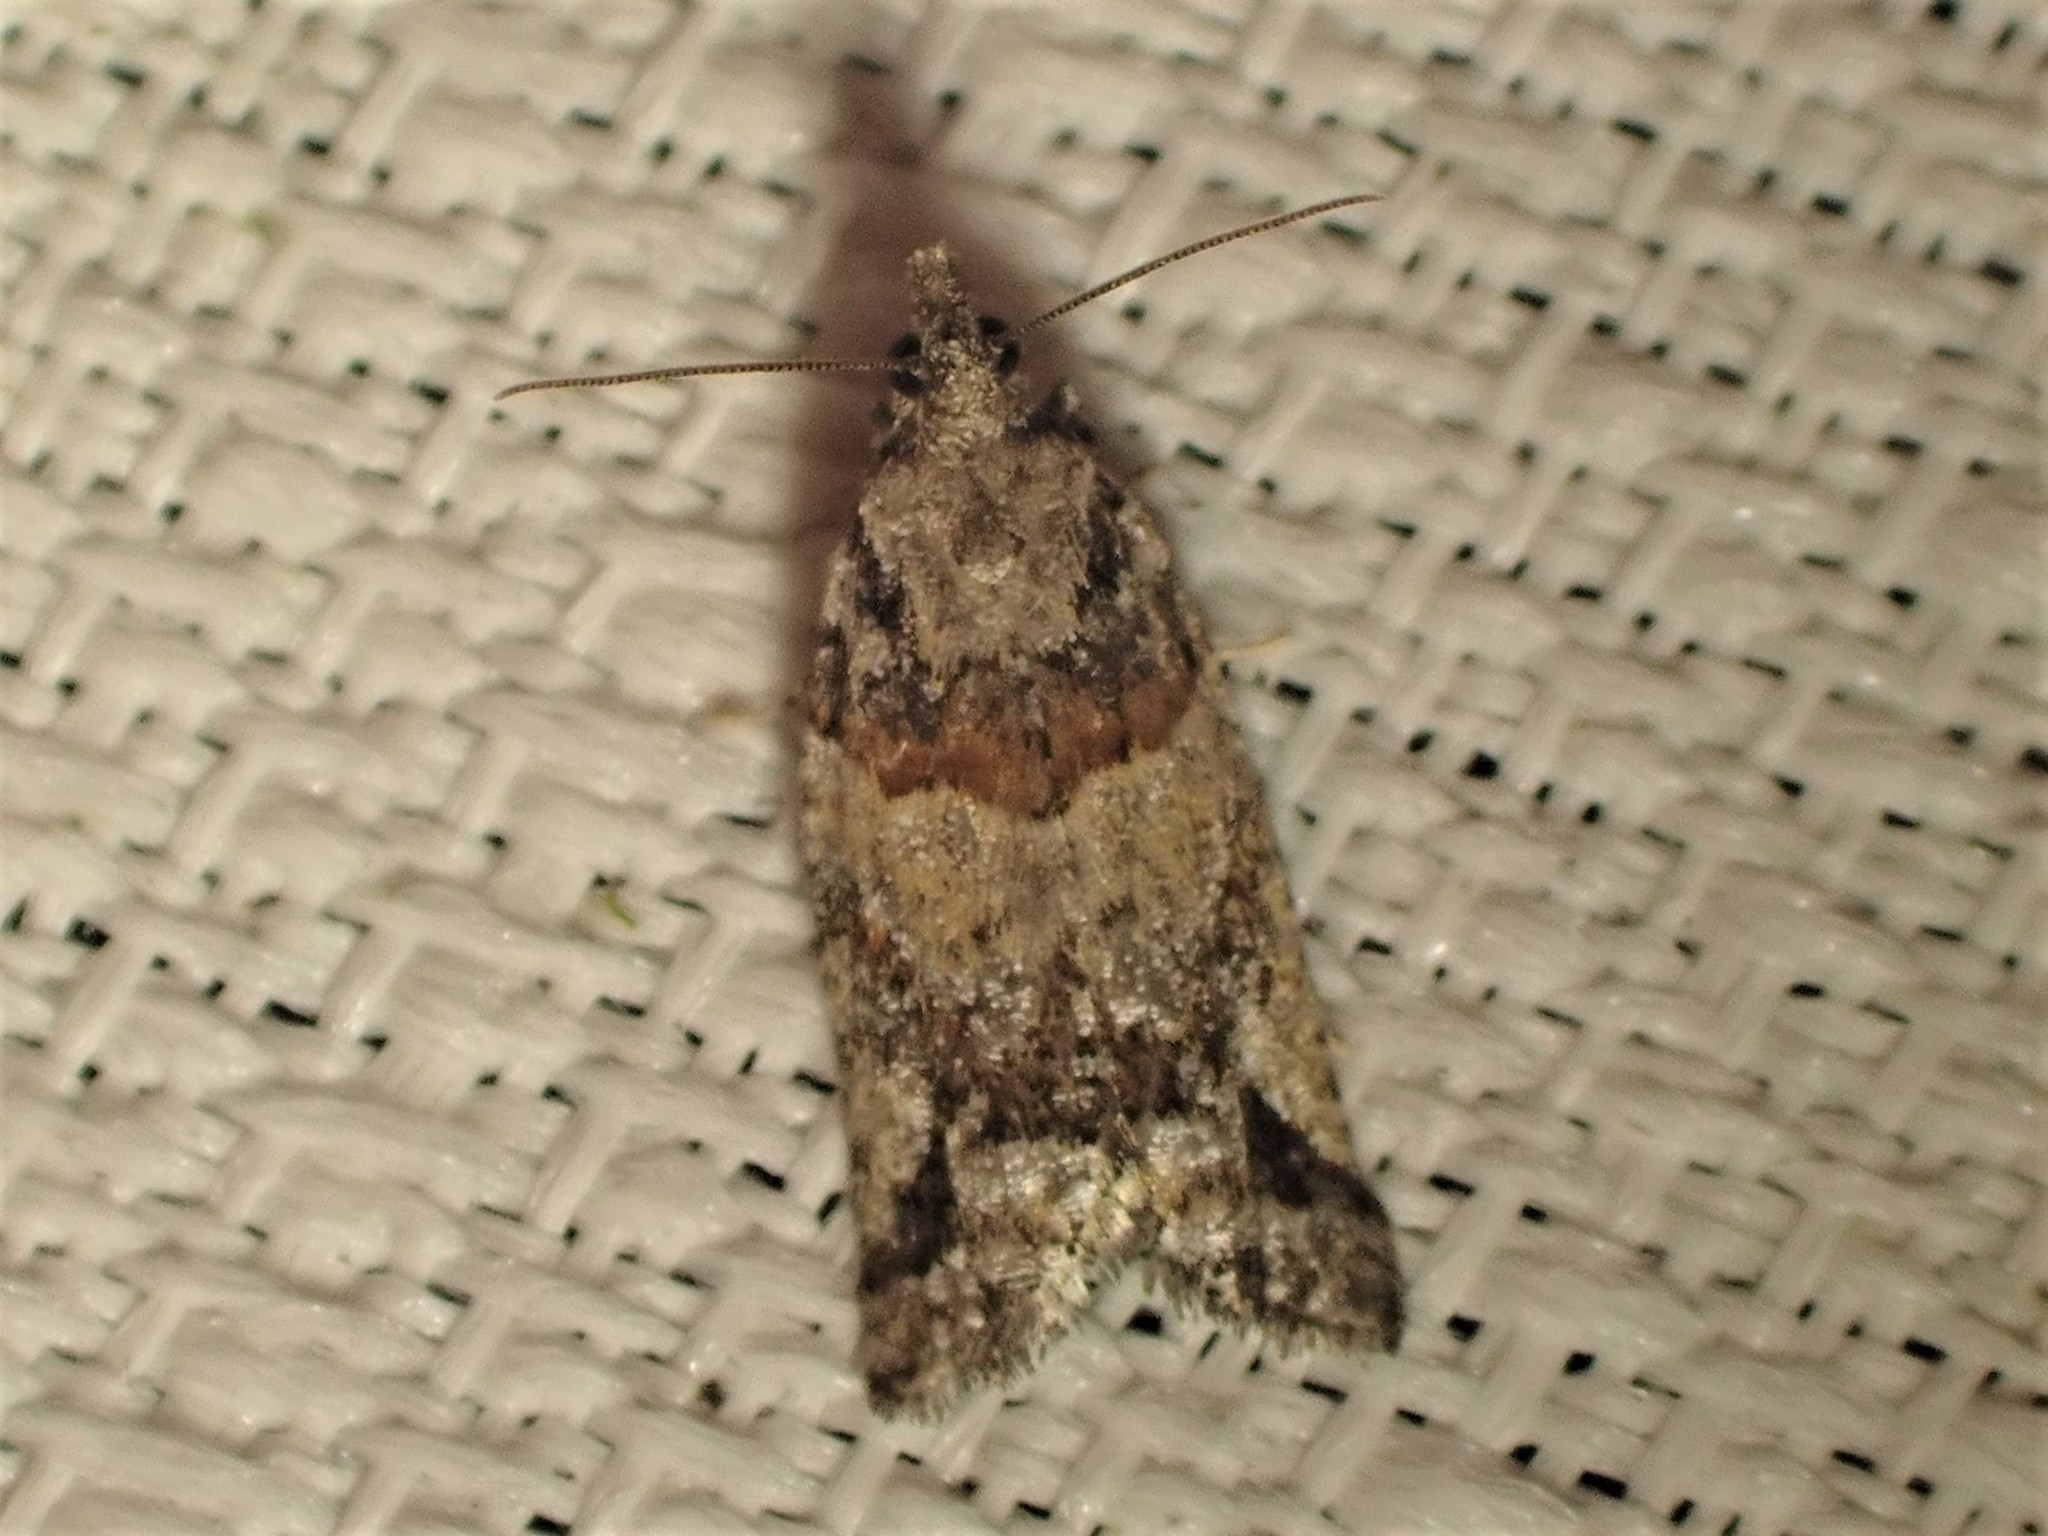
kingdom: Animalia
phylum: Arthropoda
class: Insecta
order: Lepidoptera
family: Tortricidae
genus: Epinotia
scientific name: Epinotia radicana
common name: Red-striped needleworm moth
